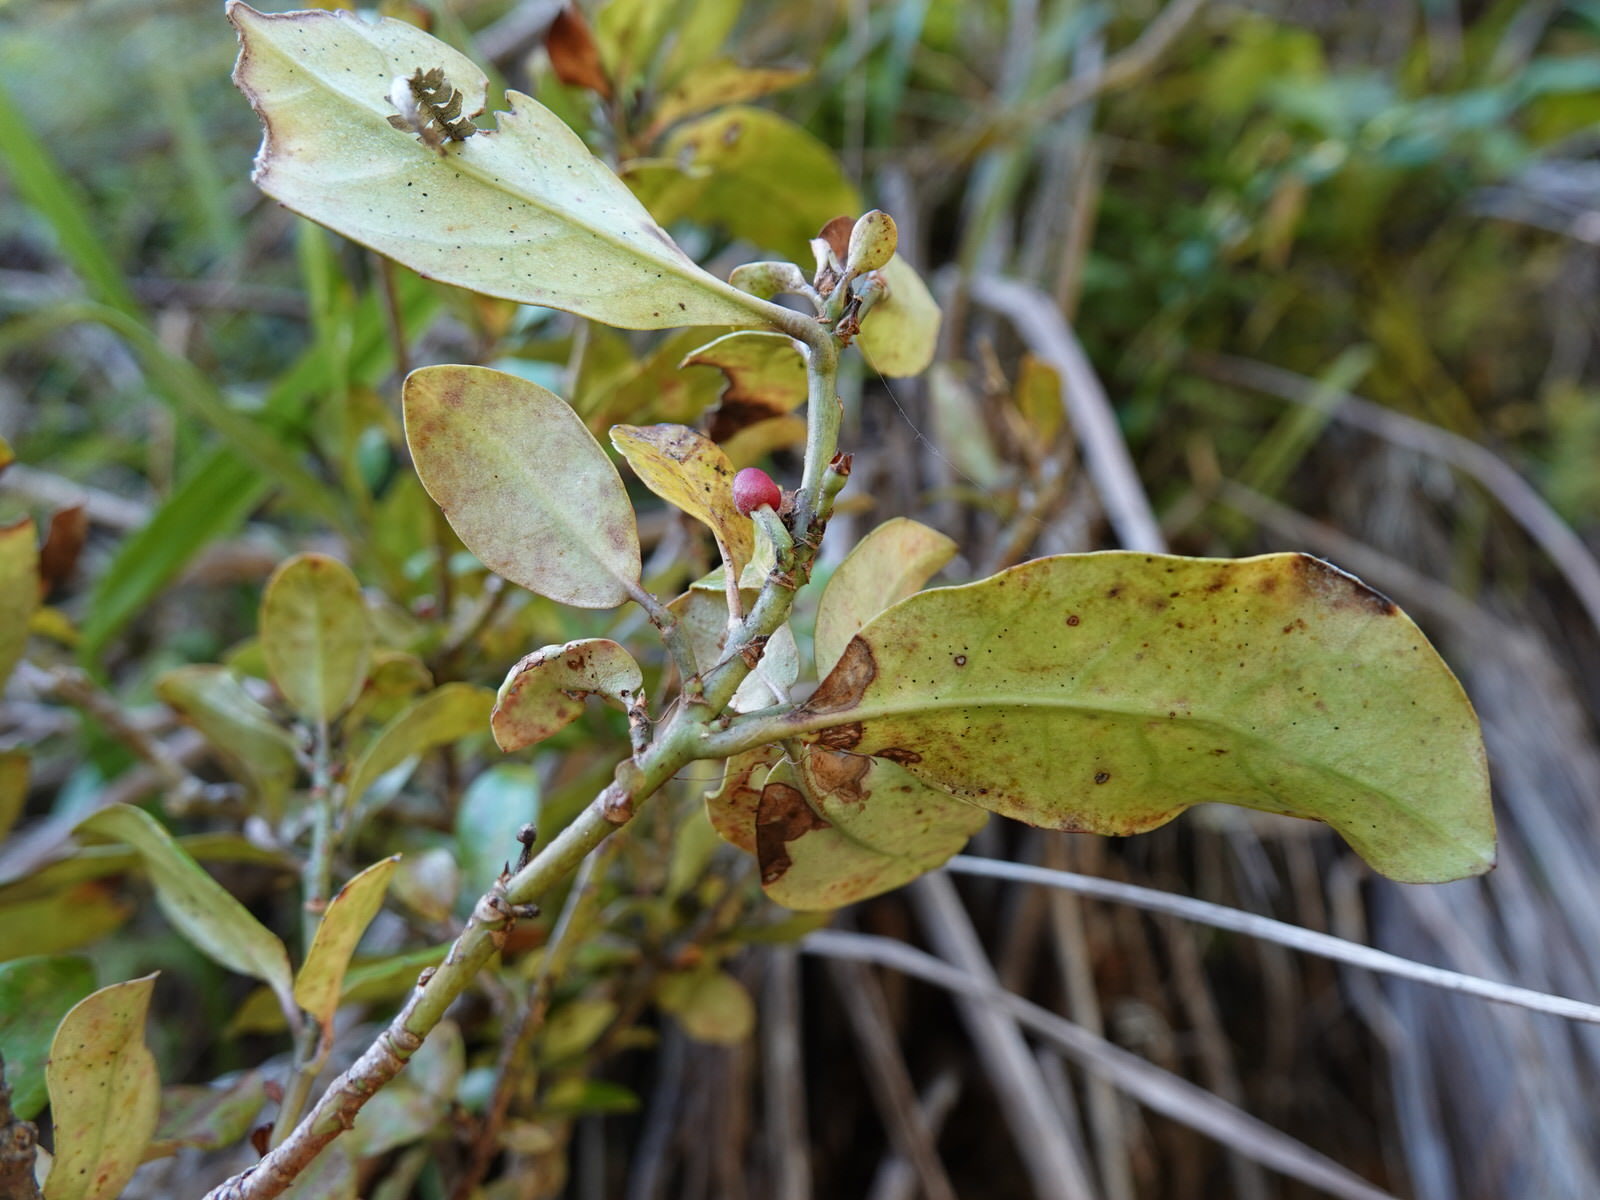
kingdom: Plantae
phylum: Tracheophyta
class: Magnoliopsida
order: Asterales
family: Alseuosmiaceae
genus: Alseuosmia
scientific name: Alseuosmia macrophylla
